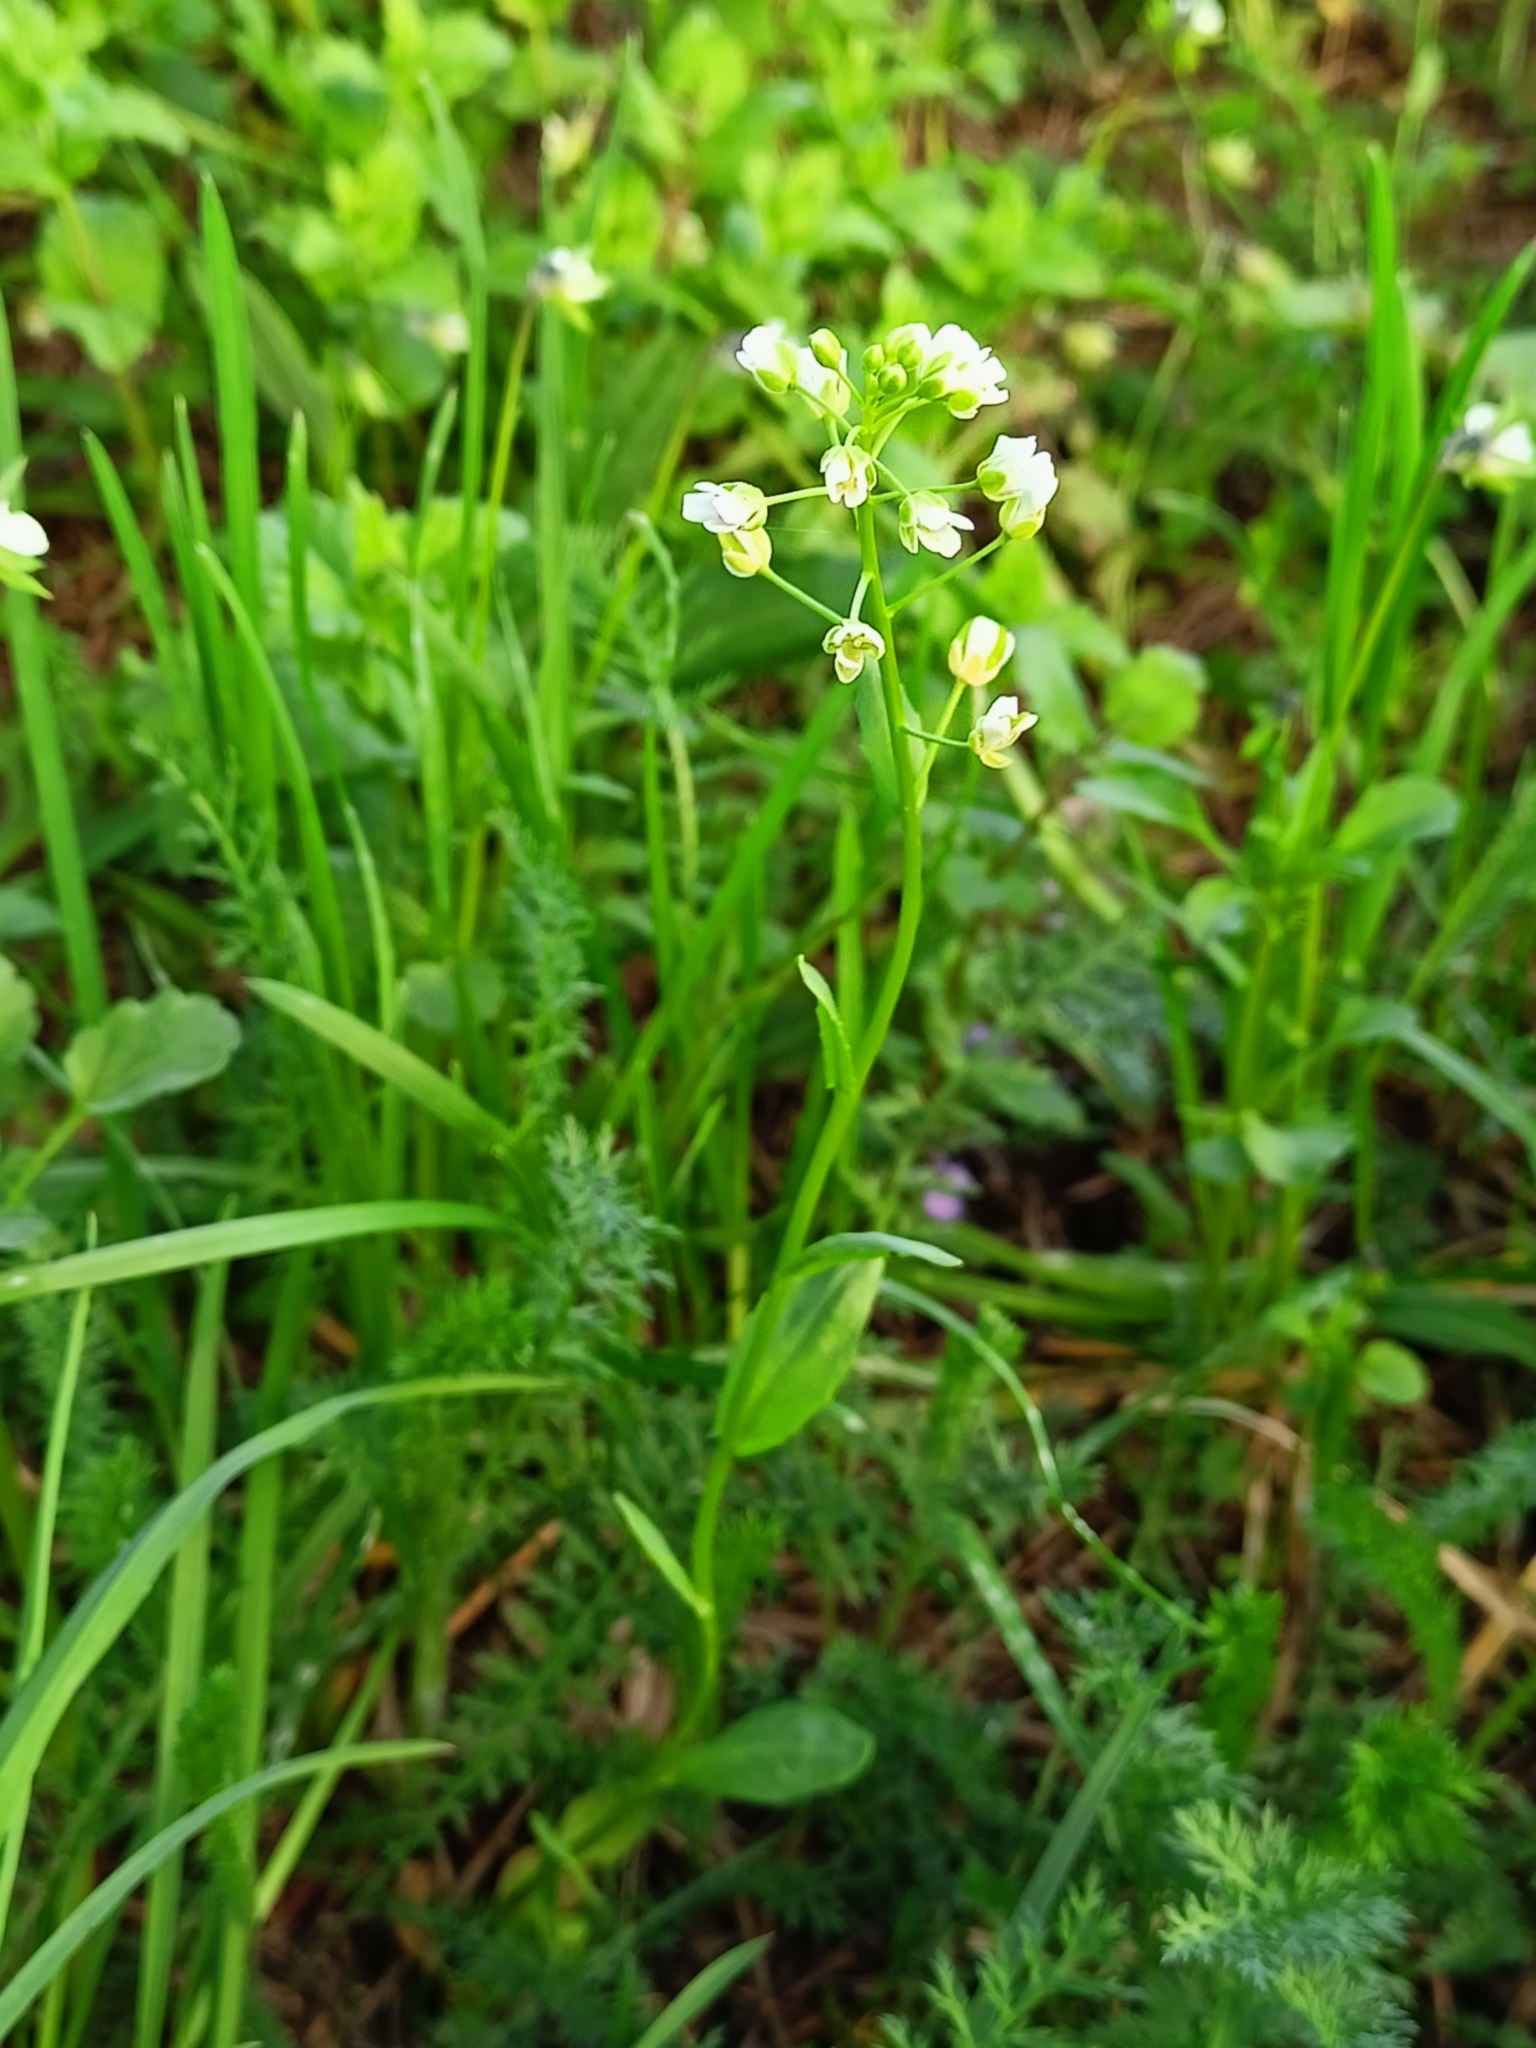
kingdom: Plantae
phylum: Tracheophyta
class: Magnoliopsida
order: Brassicales
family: Brassicaceae
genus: Thlaspi
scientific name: Thlaspi arvense
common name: Field pennycress
